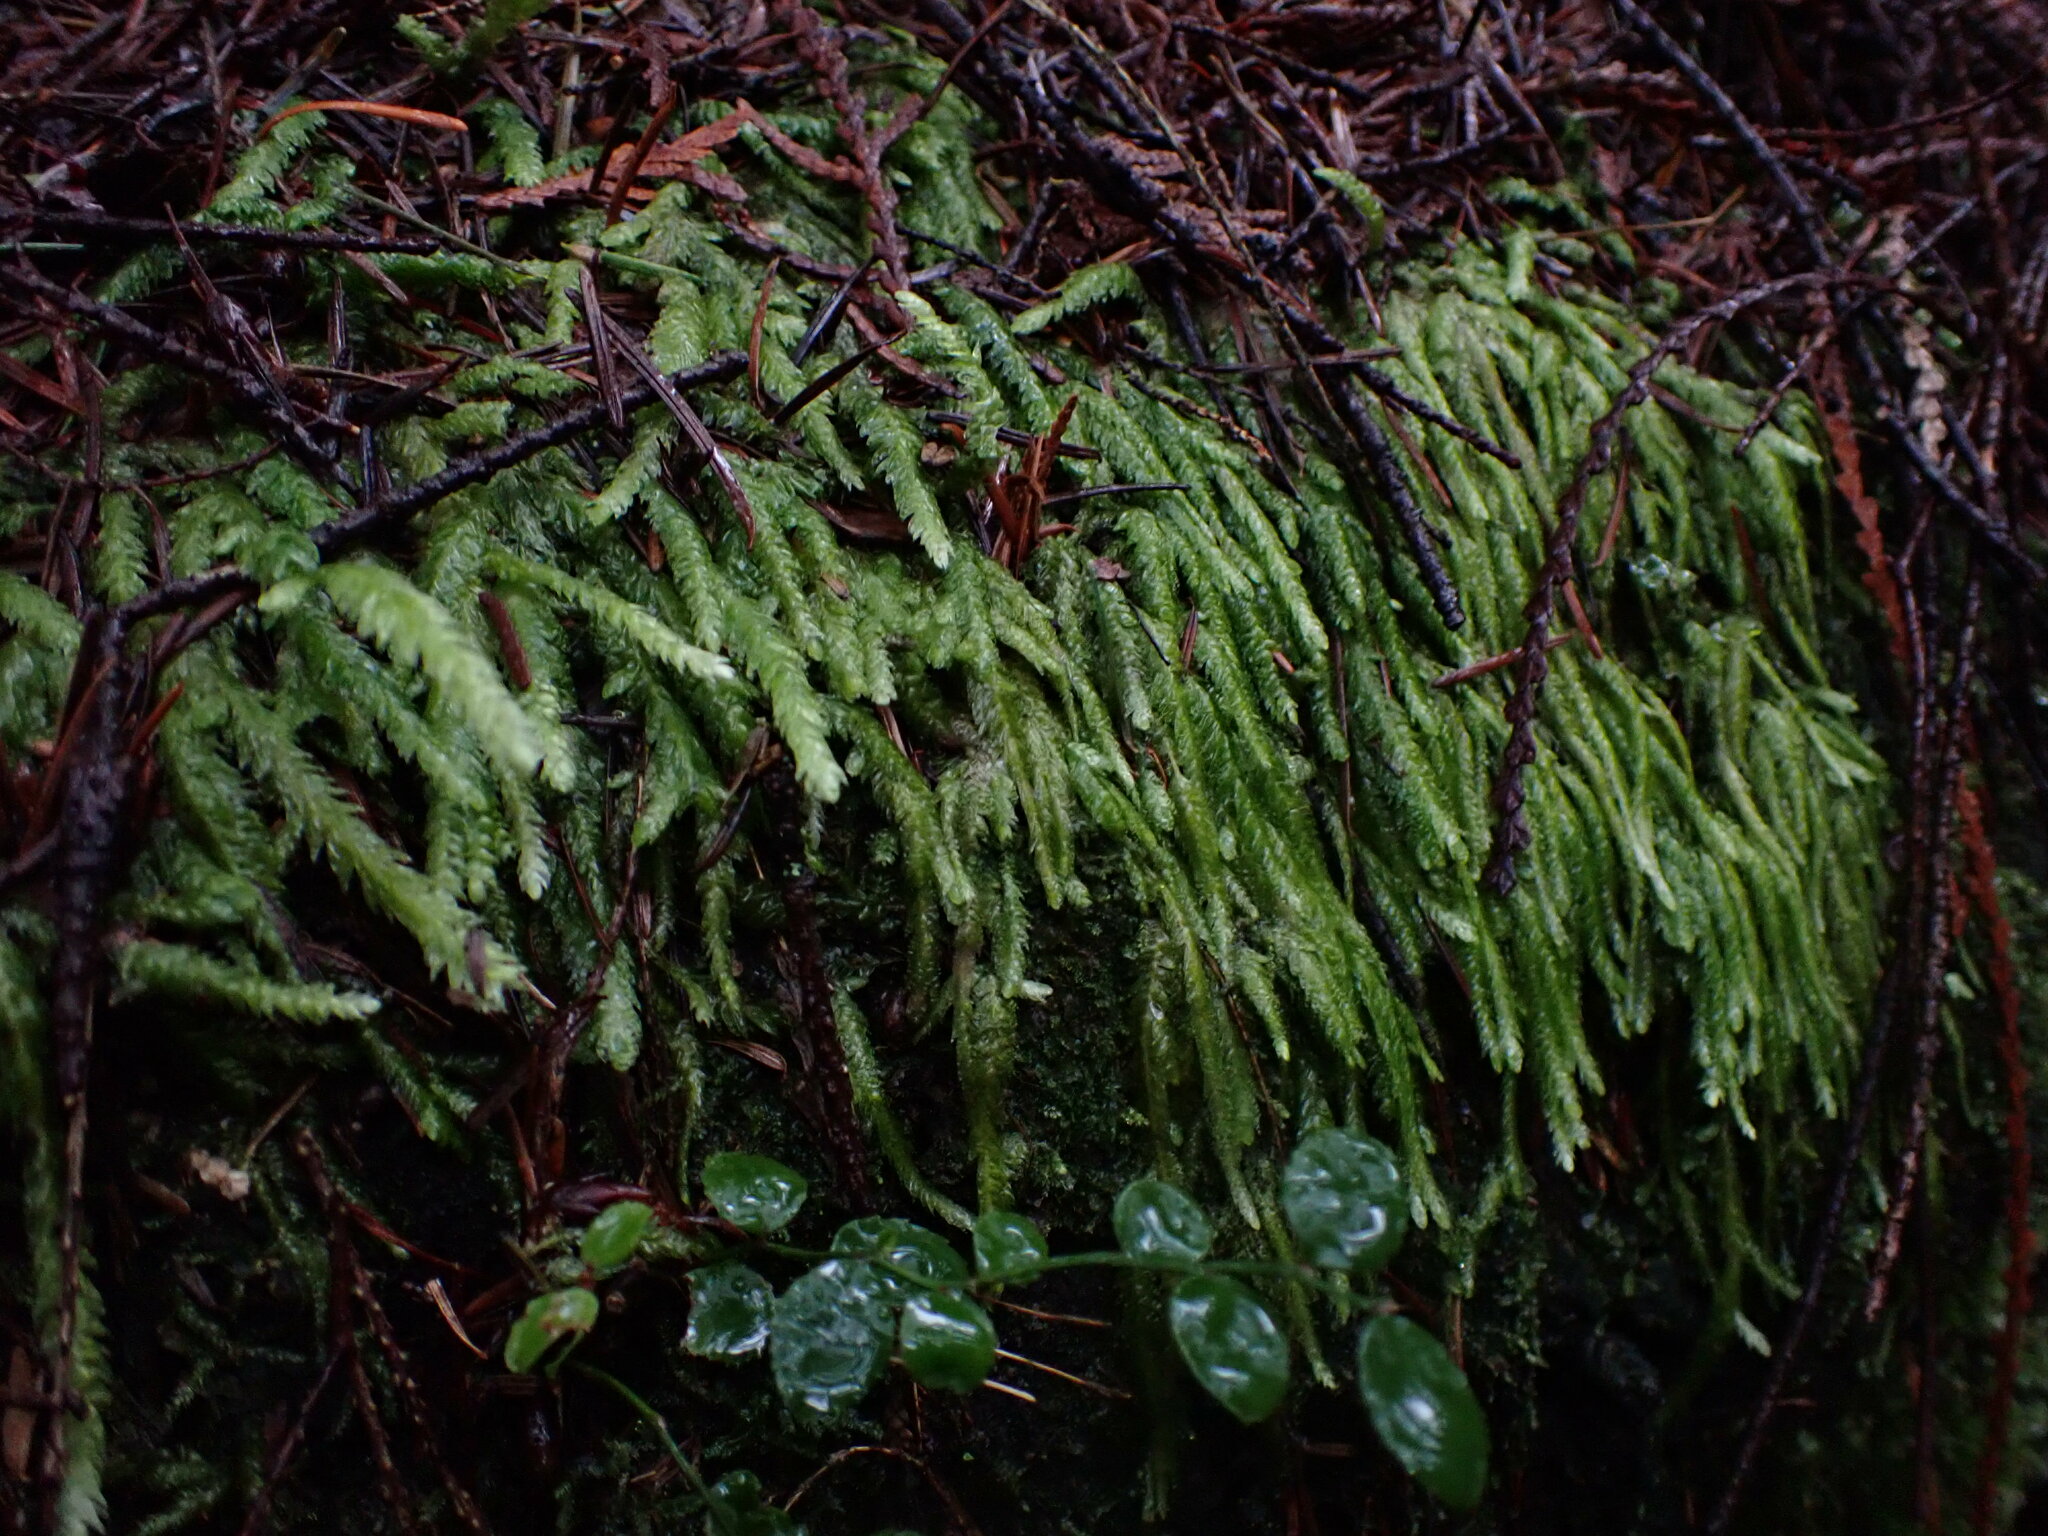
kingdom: Plantae
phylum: Bryophyta
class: Bryopsida
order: Hypnales
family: Plagiotheciaceae
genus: Plagiothecium
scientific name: Plagiothecium undulatum
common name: Waved silk-moss
